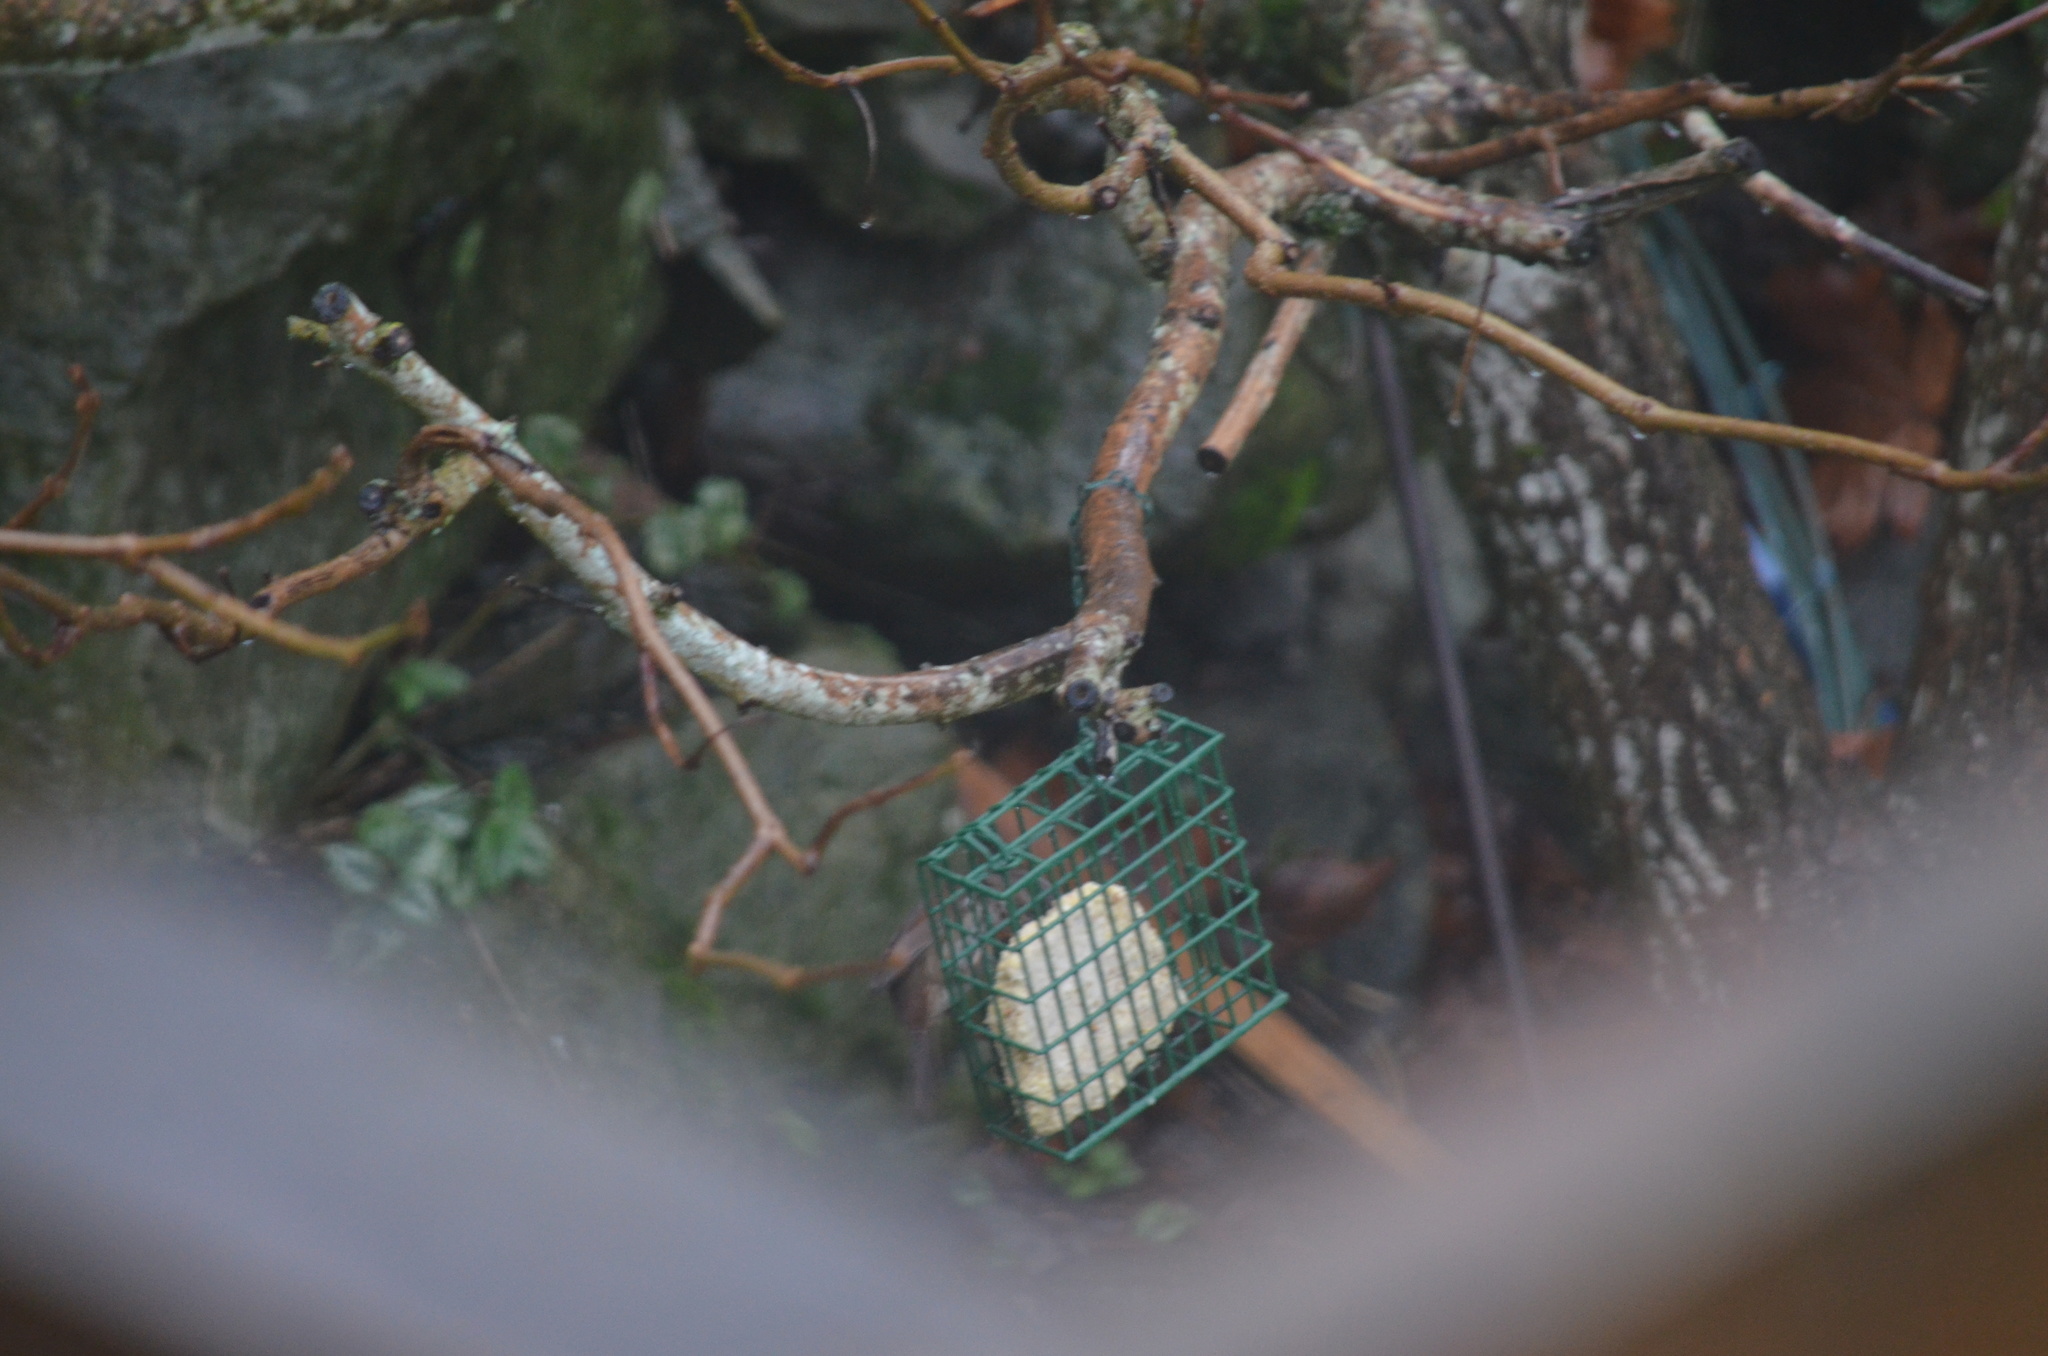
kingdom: Animalia
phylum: Chordata
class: Aves
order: Passeriformes
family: Paridae
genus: Poecile
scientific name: Poecile rufescens
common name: Chestnut-backed chickadee
